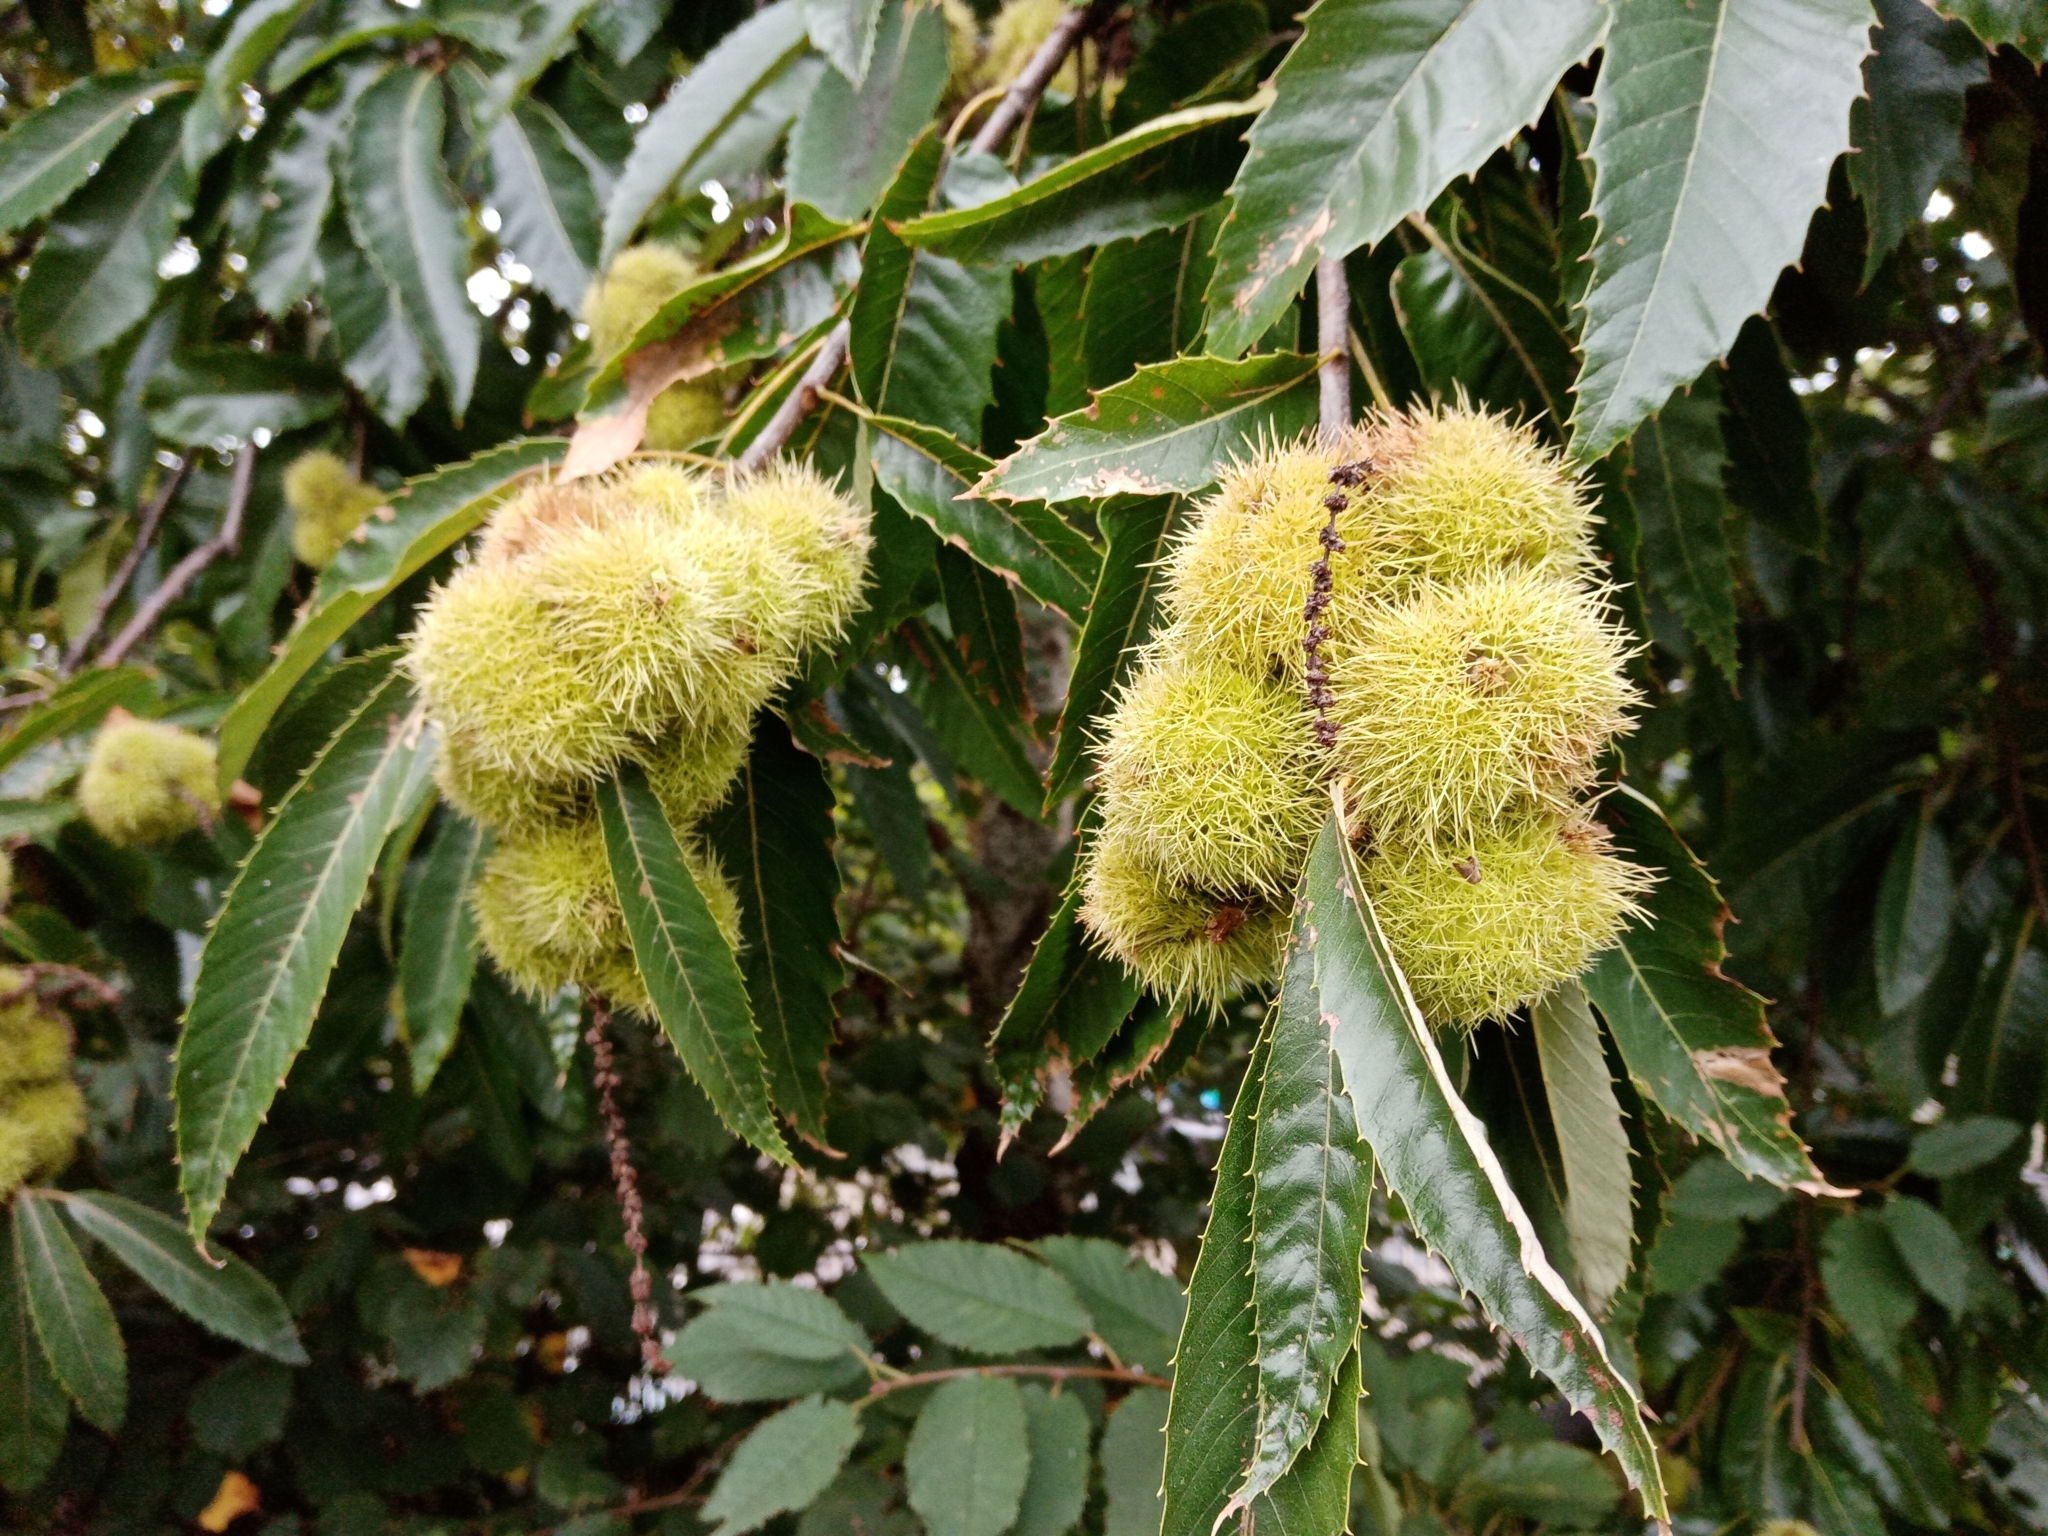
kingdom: Plantae
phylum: Tracheophyta
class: Magnoliopsida
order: Fagales
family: Fagaceae
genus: Castanea
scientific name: Castanea sativa
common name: Sweet chestnut
